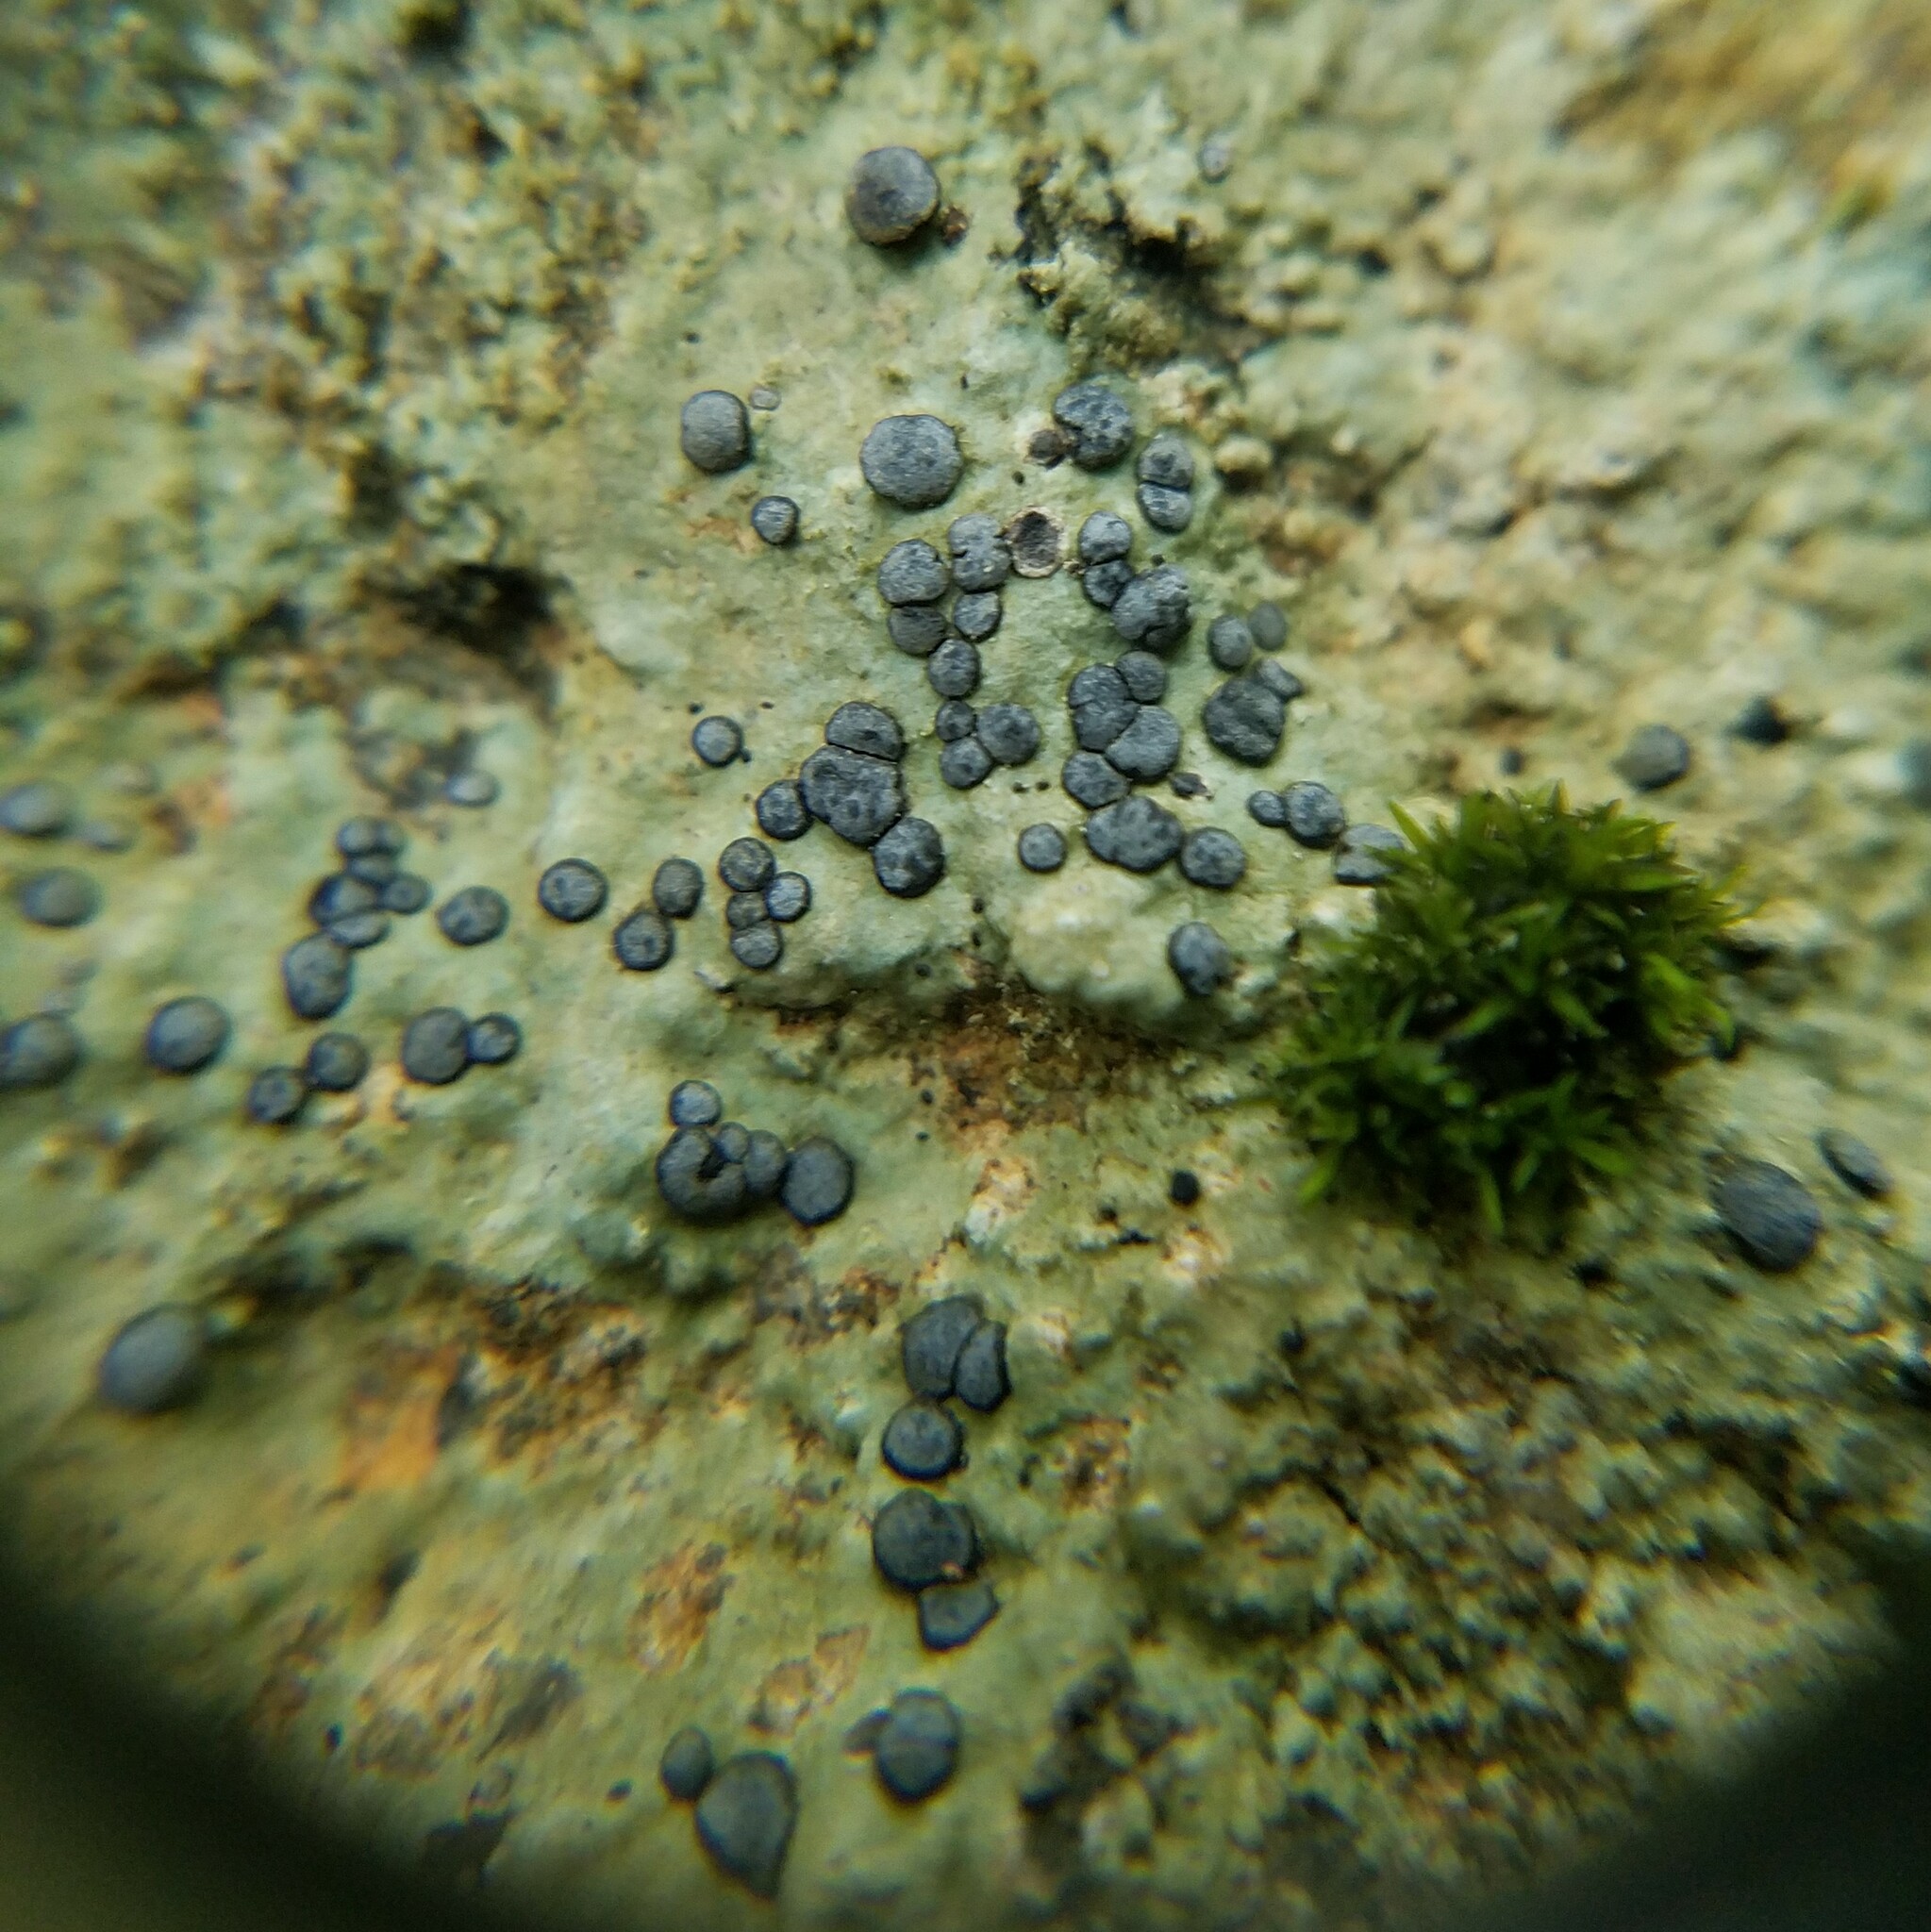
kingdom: Fungi
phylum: Ascomycota
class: Lecanoromycetes
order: Lecideales
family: Lecideaceae
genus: Porpidia
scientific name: Porpidia albocaerulescens
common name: Smokey-eyed boulder lichen
